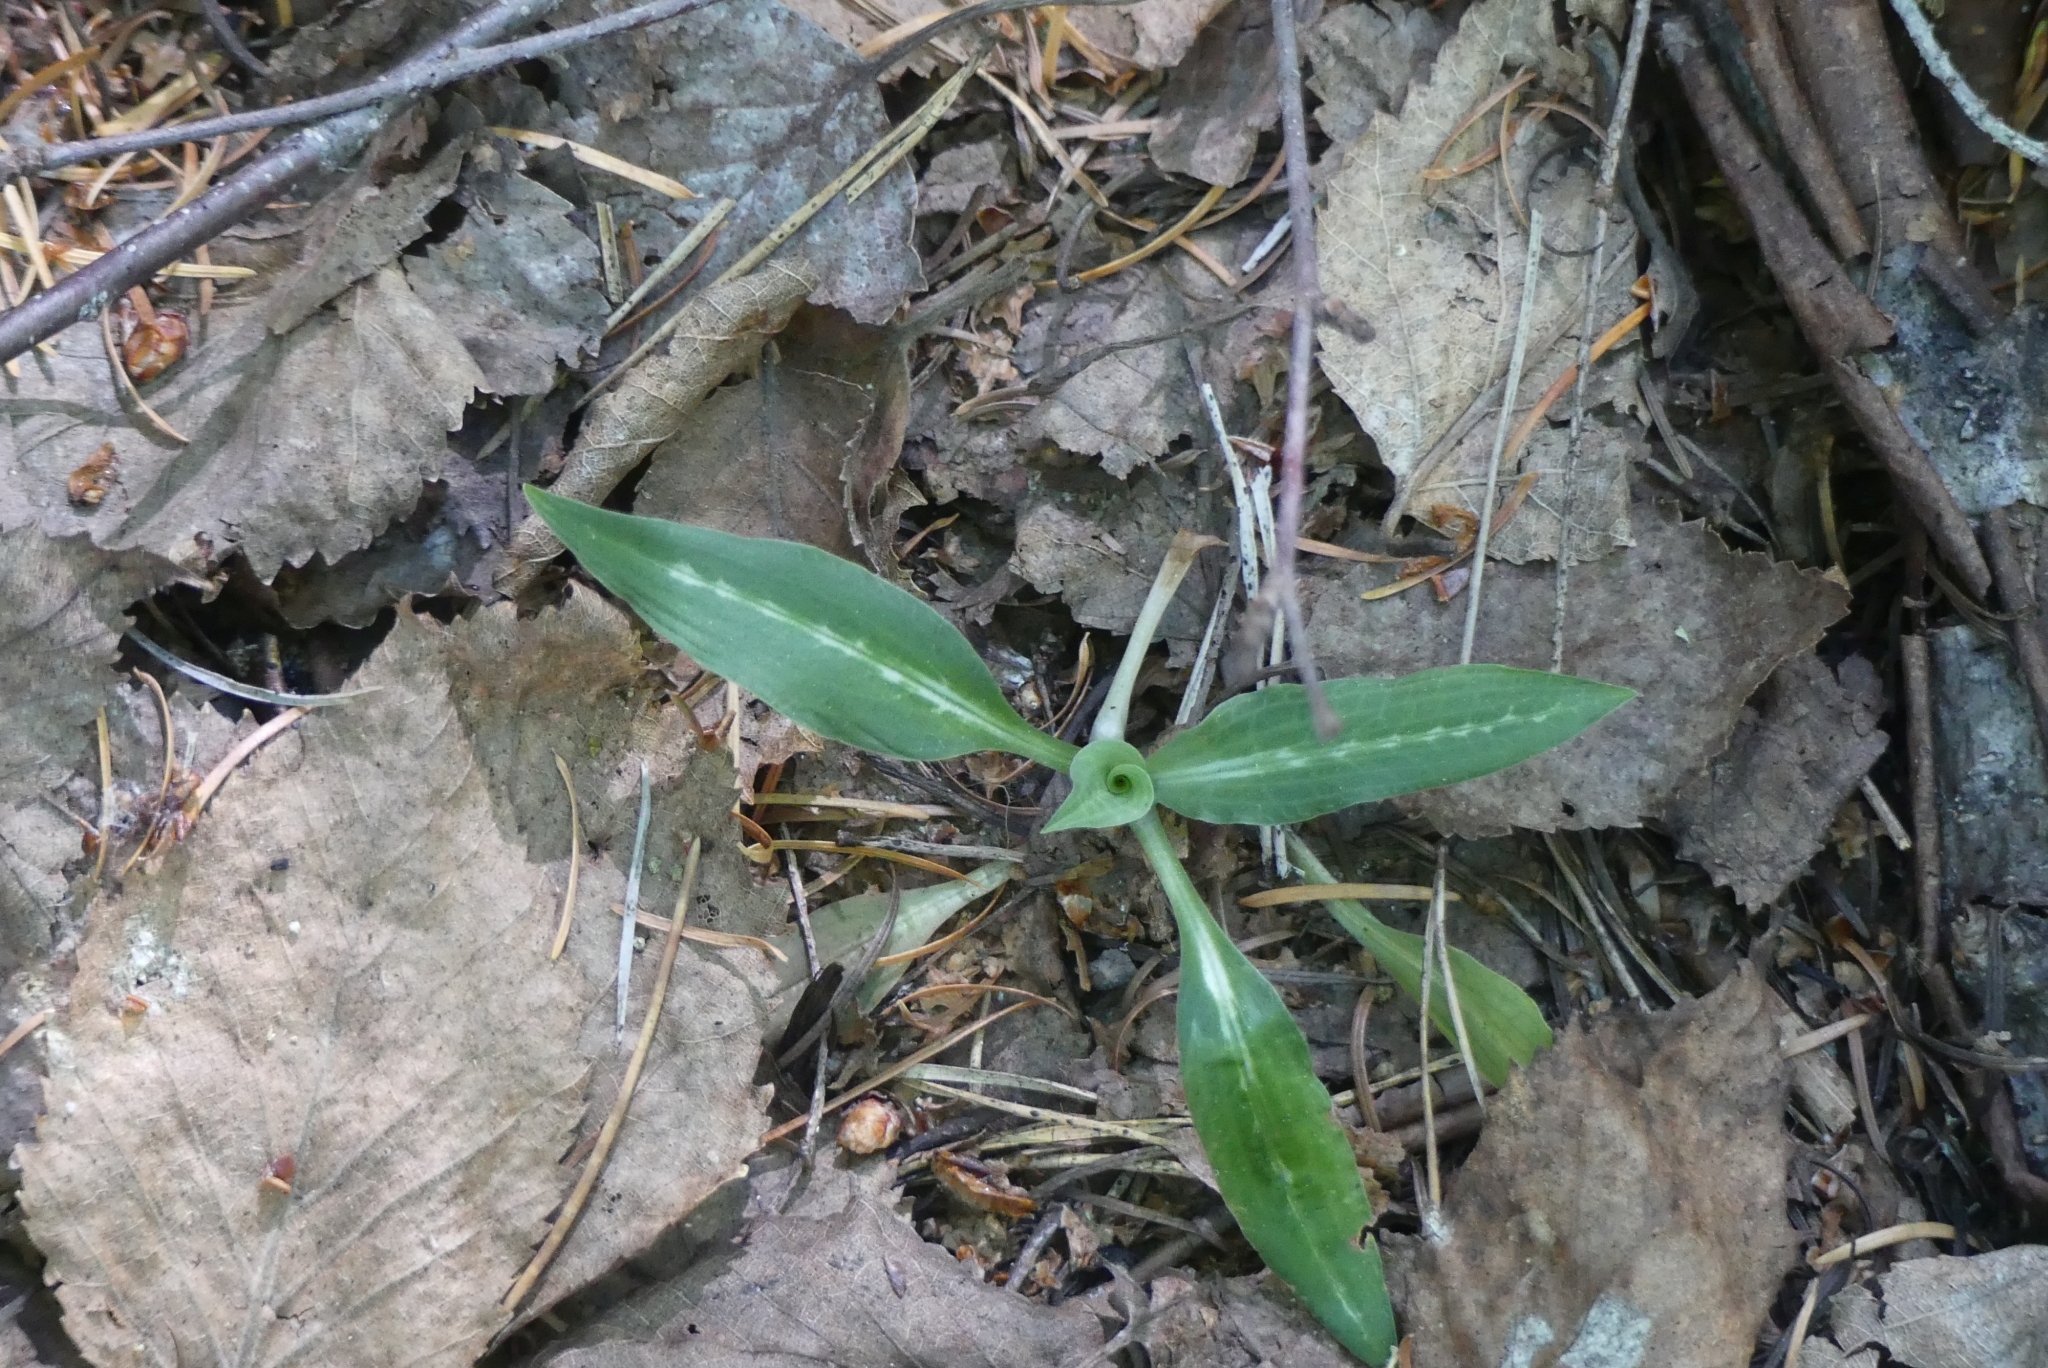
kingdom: Plantae
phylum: Tracheophyta
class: Liliopsida
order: Asparagales
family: Orchidaceae
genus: Goodyera
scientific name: Goodyera oblongifolia
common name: Giant rattlesnake-plantain
